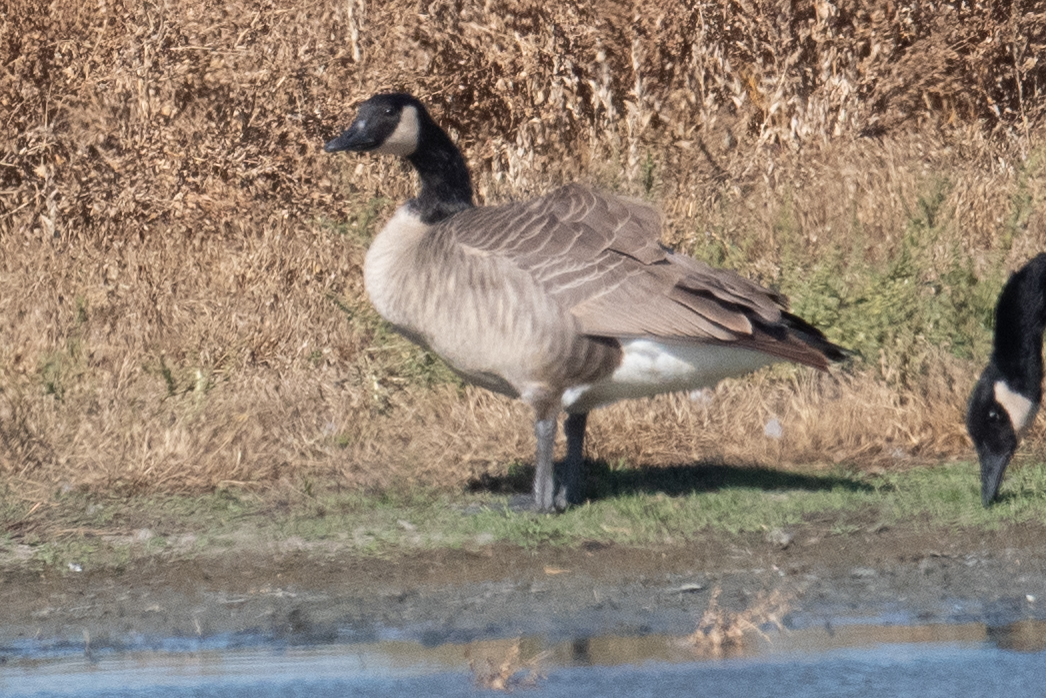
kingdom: Animalia
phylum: Chordata
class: Aves
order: Anseriformes
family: Anatidae
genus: Branta
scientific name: Branta canadensis
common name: Canada goose
